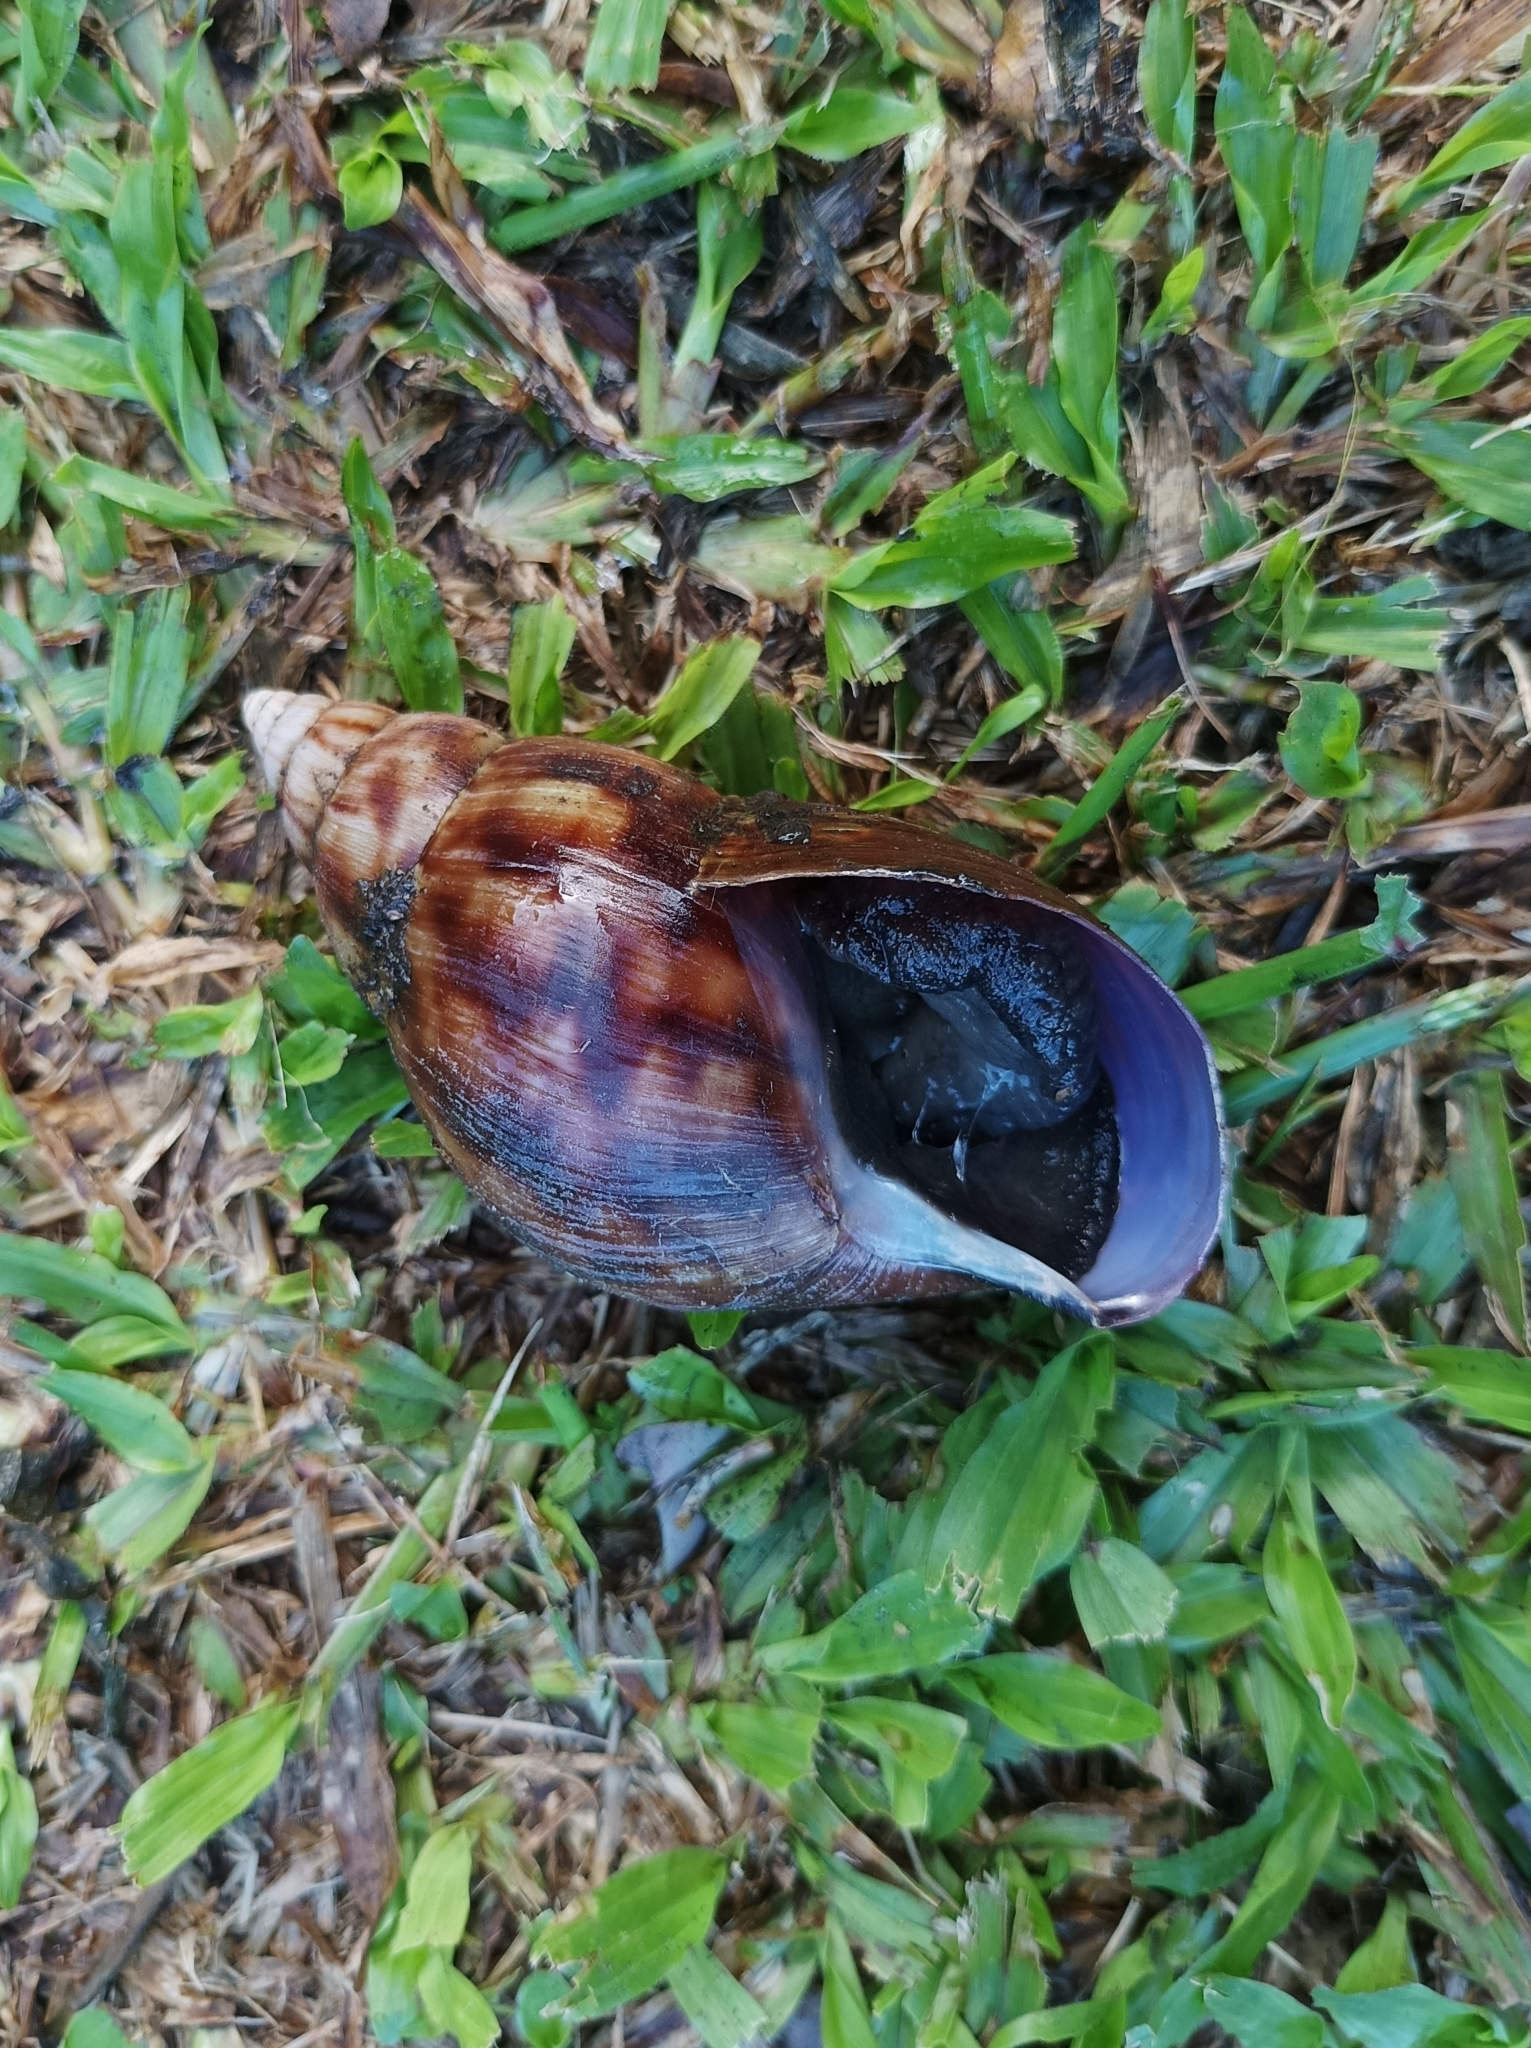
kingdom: Animalia
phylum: Mollusca
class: Gastropoda
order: Stylommatophora
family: Achatinidae
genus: Lissachatina
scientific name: Lissachatina fulica
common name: Giant african snail
